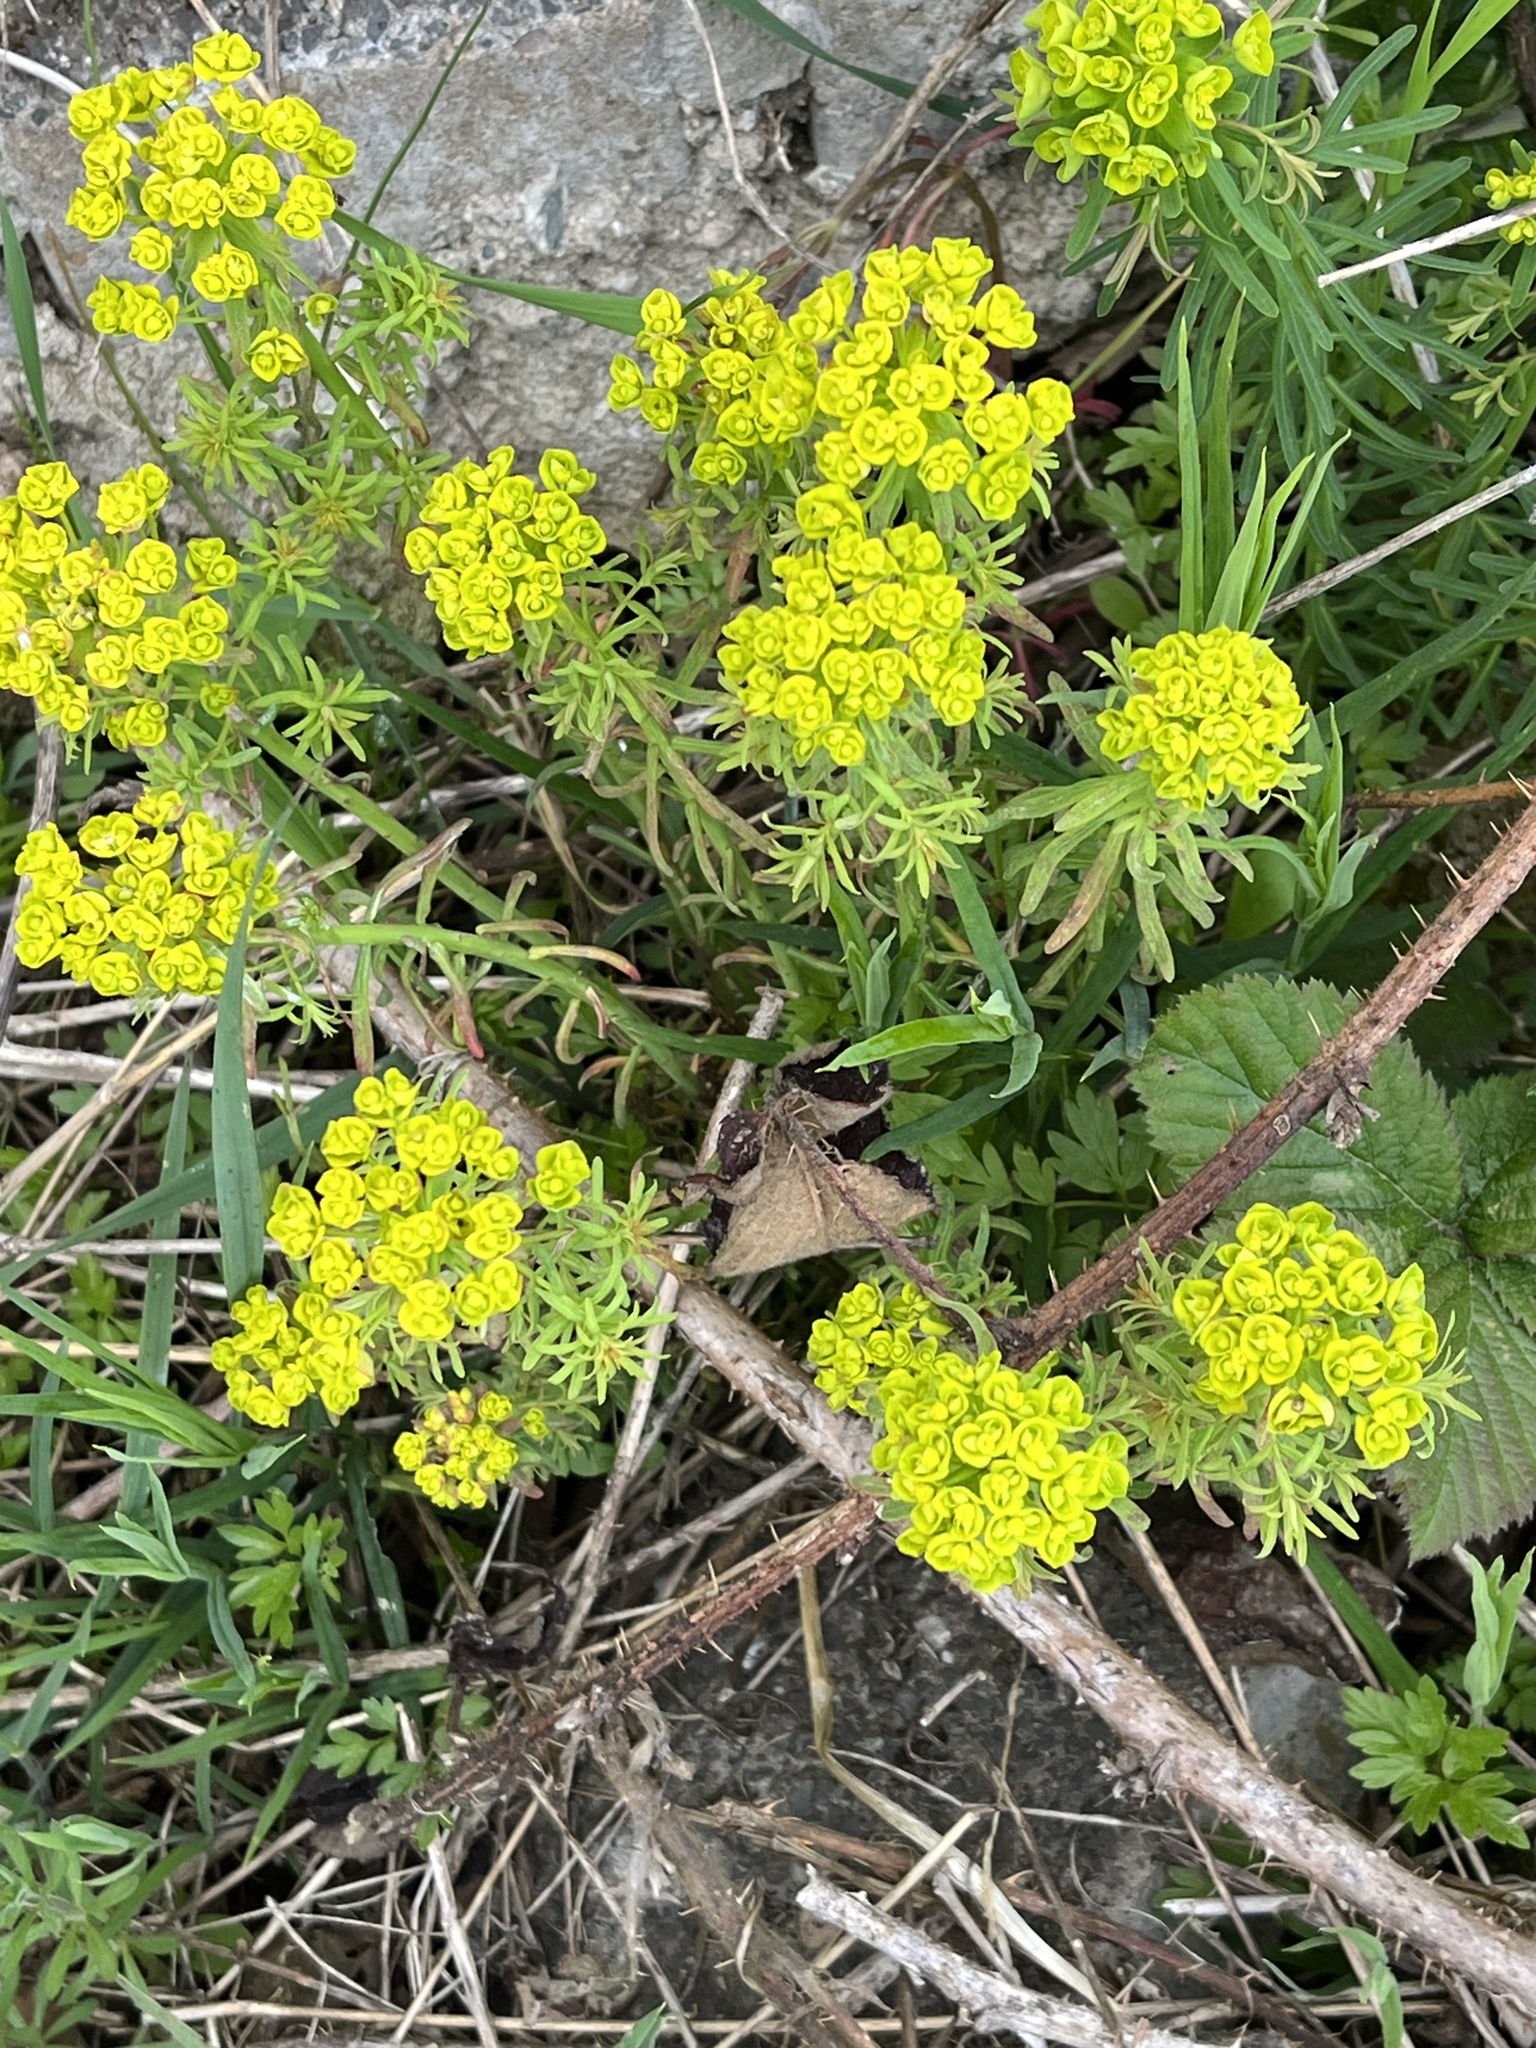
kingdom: Plantae
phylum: Tracheophyta
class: Magnoliopsida
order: Malpighiales
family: Euphorbiaceae
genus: Euphorbia
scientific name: Euphorbia cyparissias
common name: Cypress spurge
